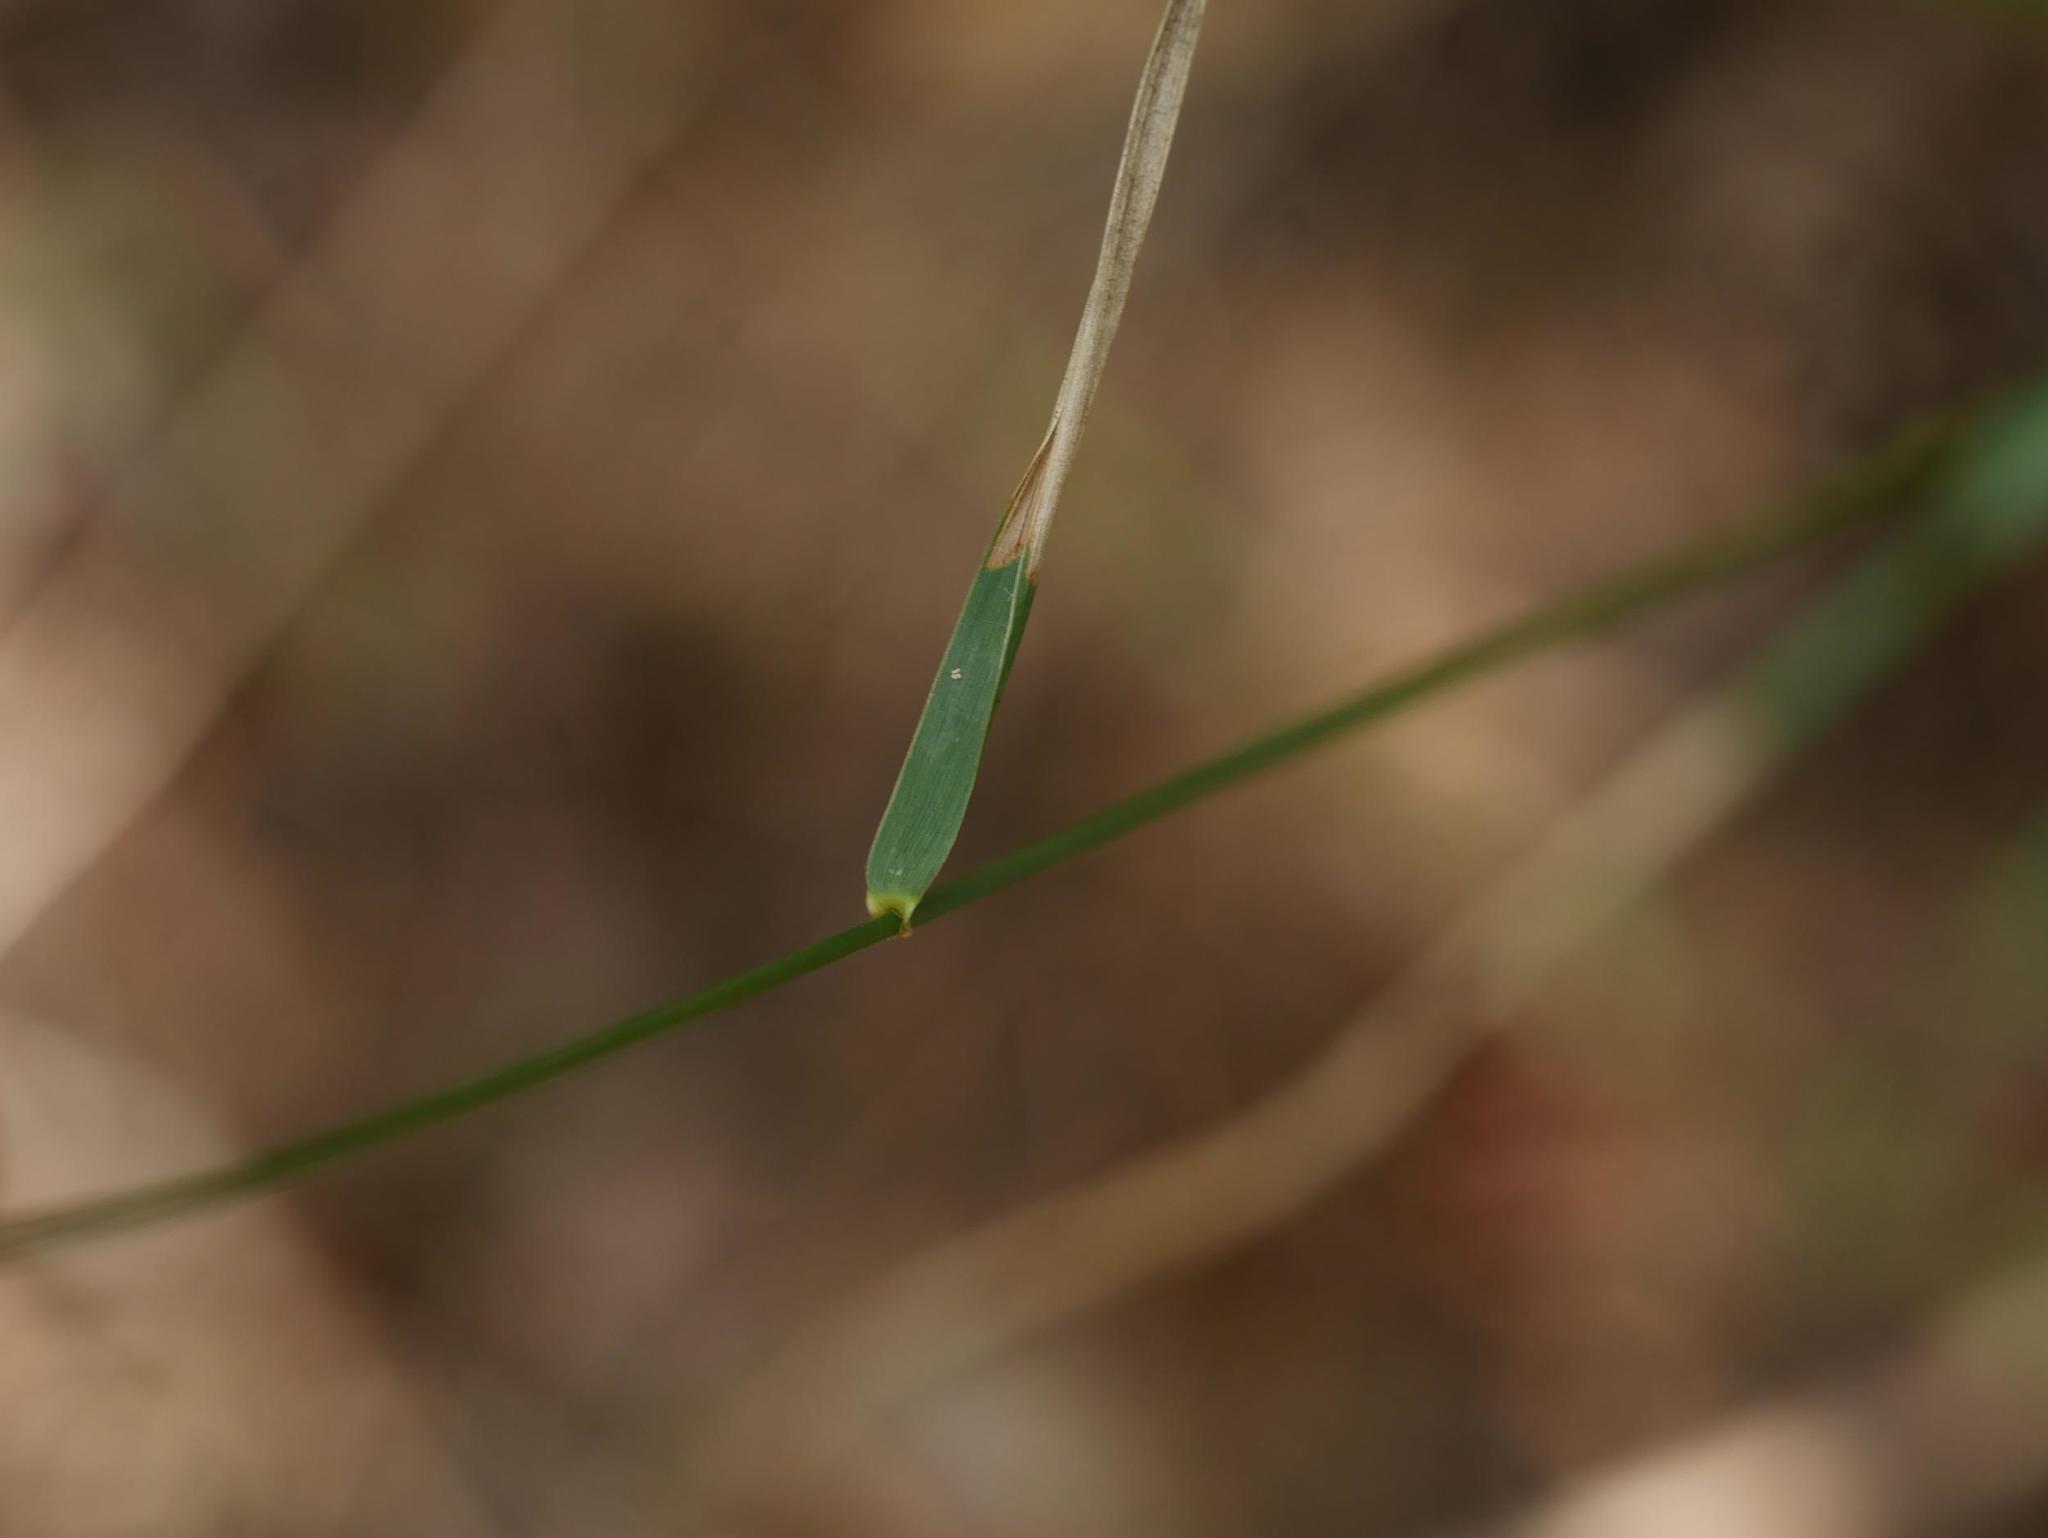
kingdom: Plantae
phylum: Tracheophyta
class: Liliopsida
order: Poales
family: Poaceae
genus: Elymus
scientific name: Elymus repens
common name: Quackgrass
